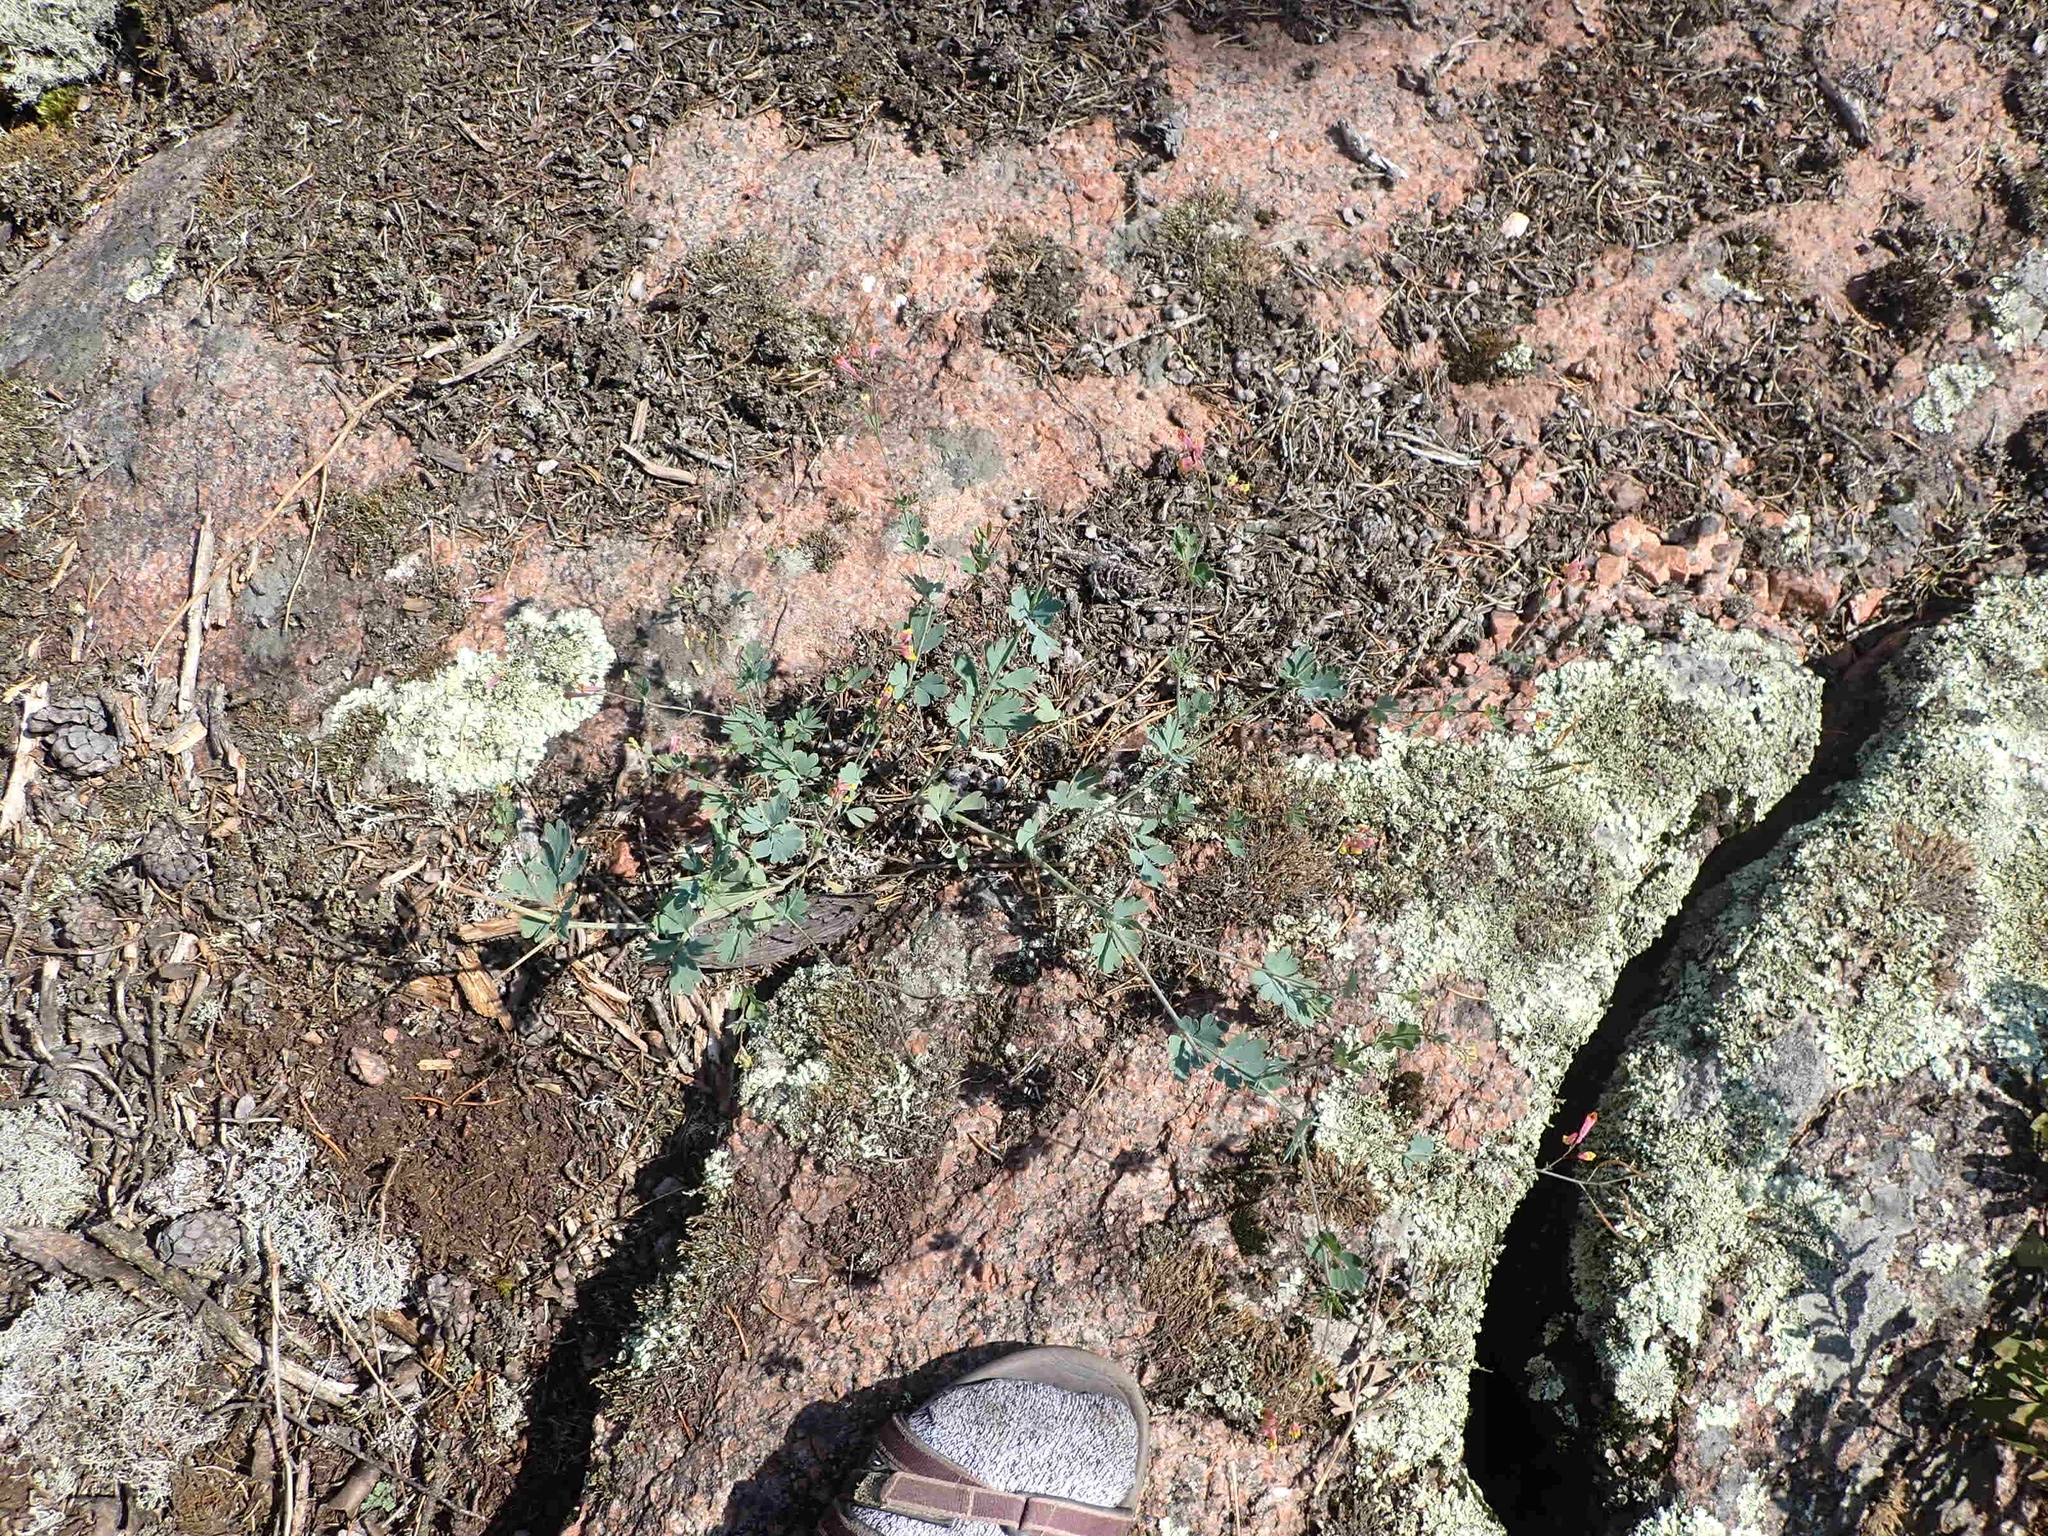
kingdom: Plantae
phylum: Tracheophyta
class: Magnoliopsida
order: Ranunculales
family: Papaveraceae
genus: Capnoides
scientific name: Capnoides sempervirens
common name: Rock harlequin
